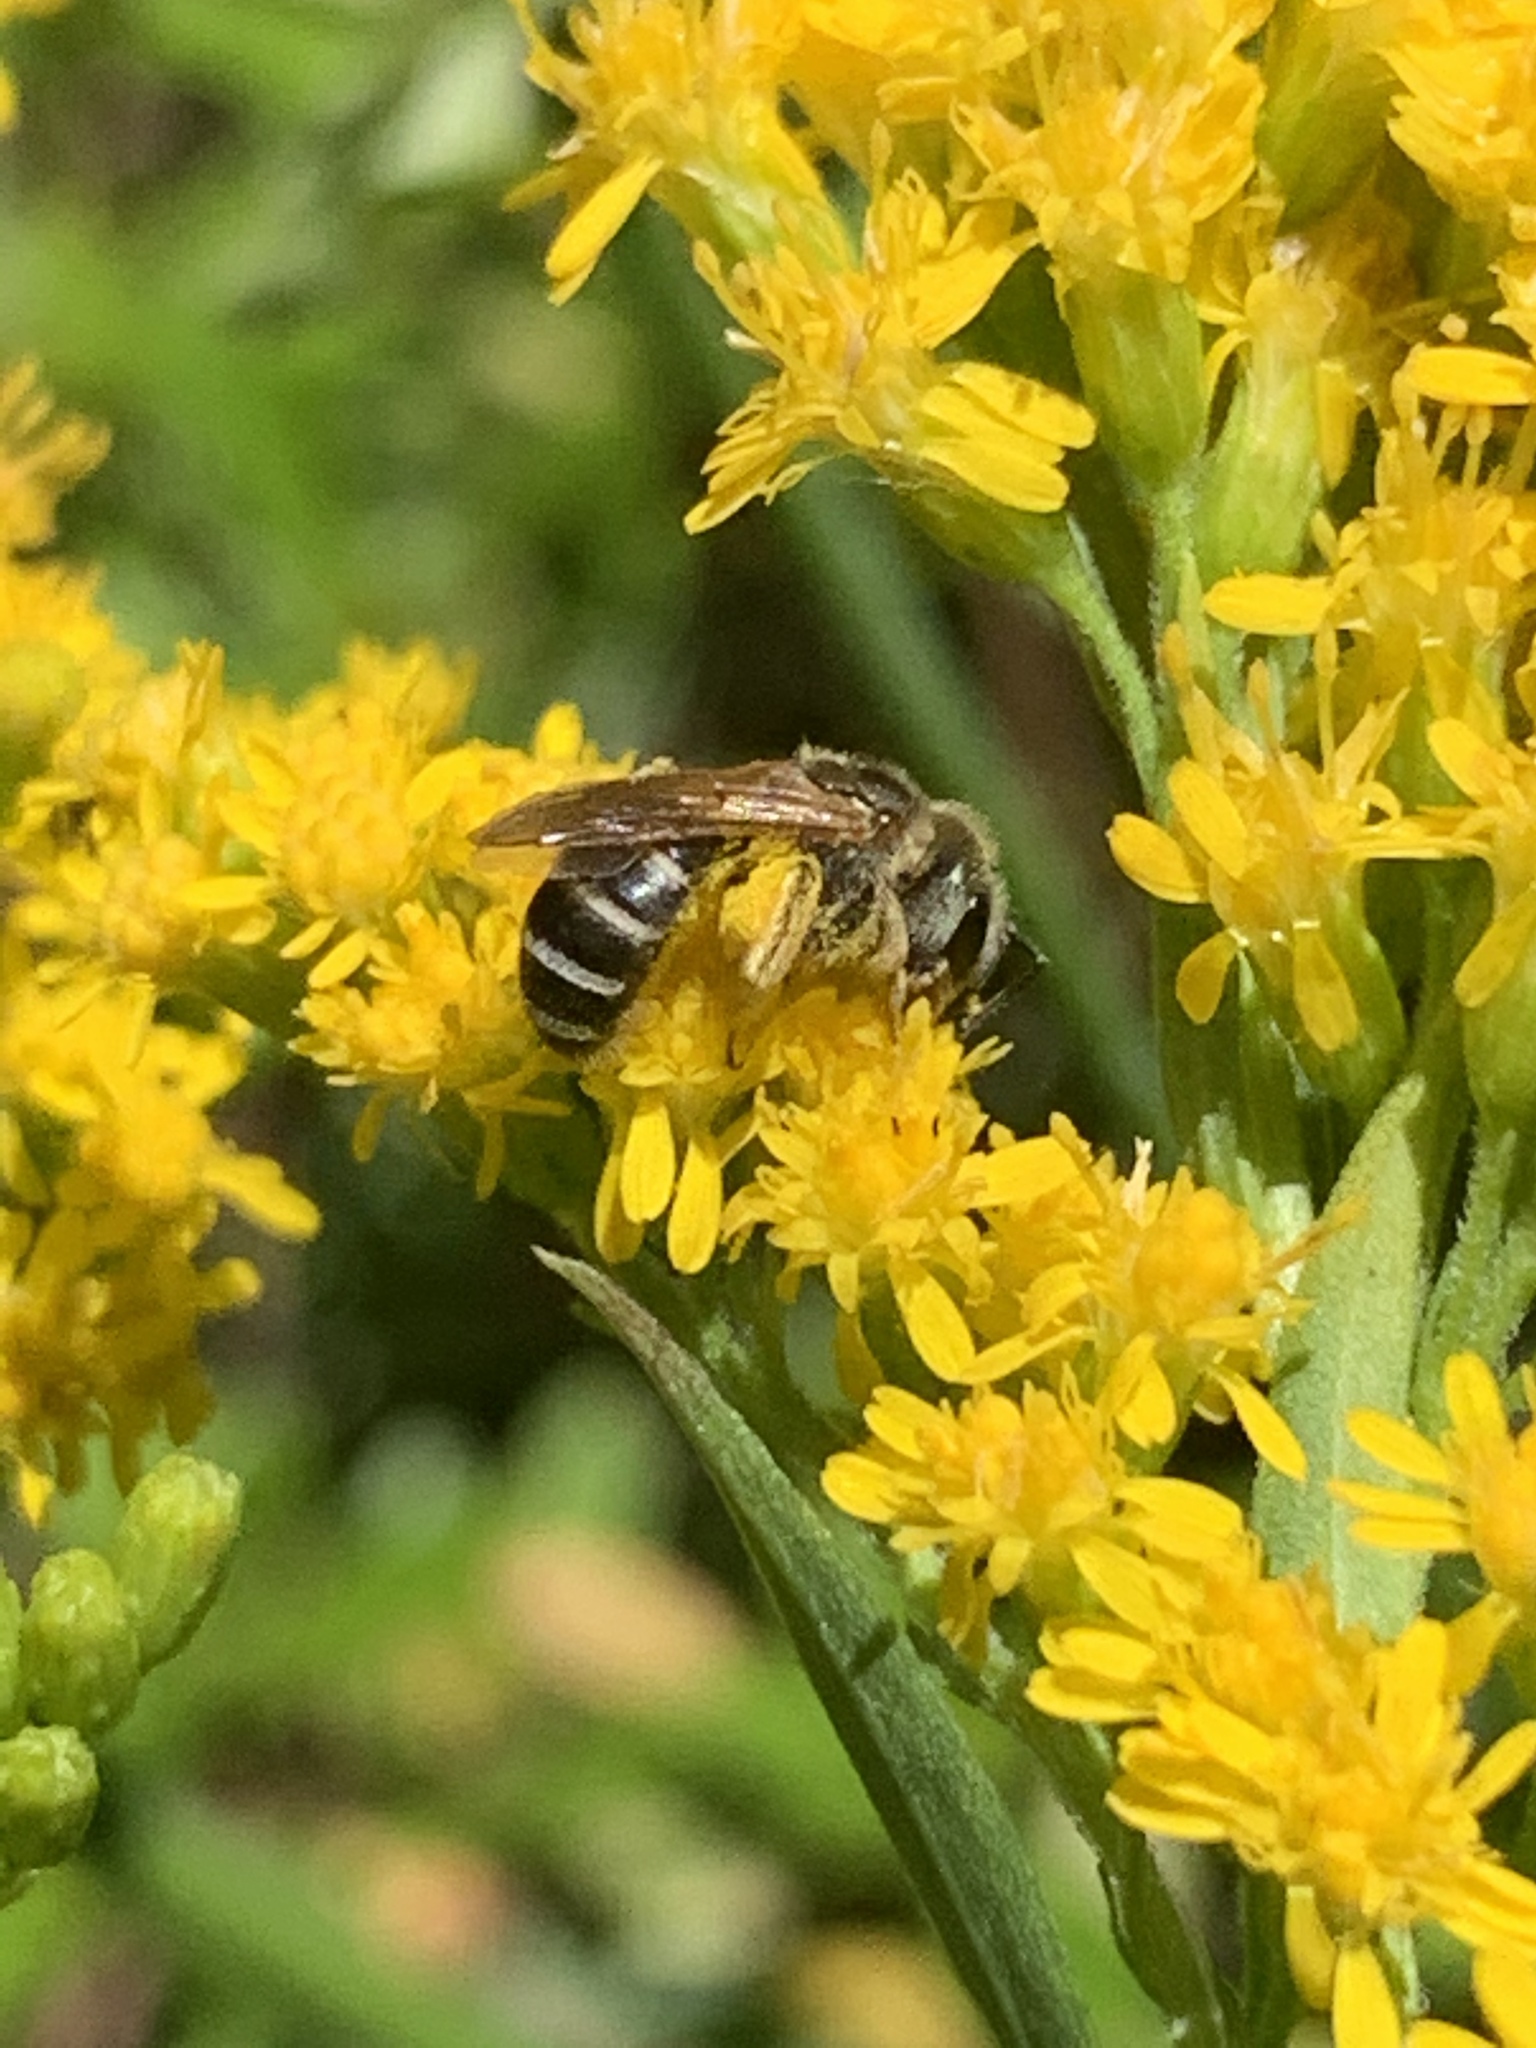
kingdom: Animalia
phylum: Arthropoda
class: Insecta
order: Hymenoptera
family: Halictidae
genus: Halictus
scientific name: Halictus ligatus
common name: Ligated furrow bee
